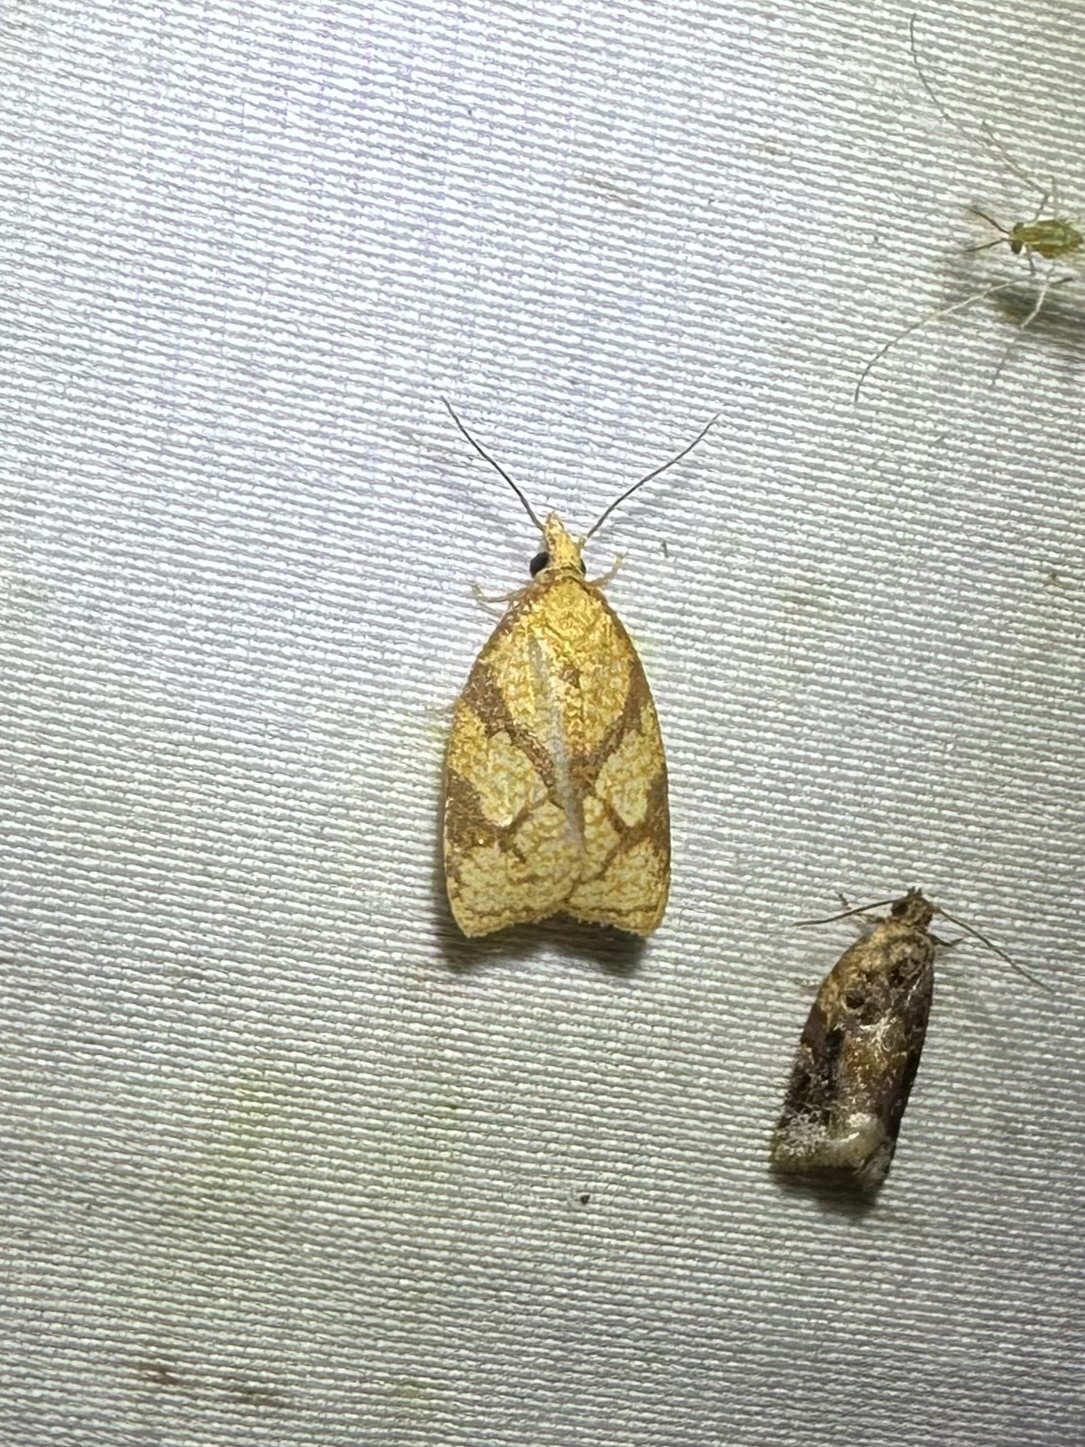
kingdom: Animalia
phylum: Arthropoda
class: Insecta
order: Lepidoptera
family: Tortricidae
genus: Cenopis
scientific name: Cenopis reticulatana
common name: Reticulated fruitworm moth
